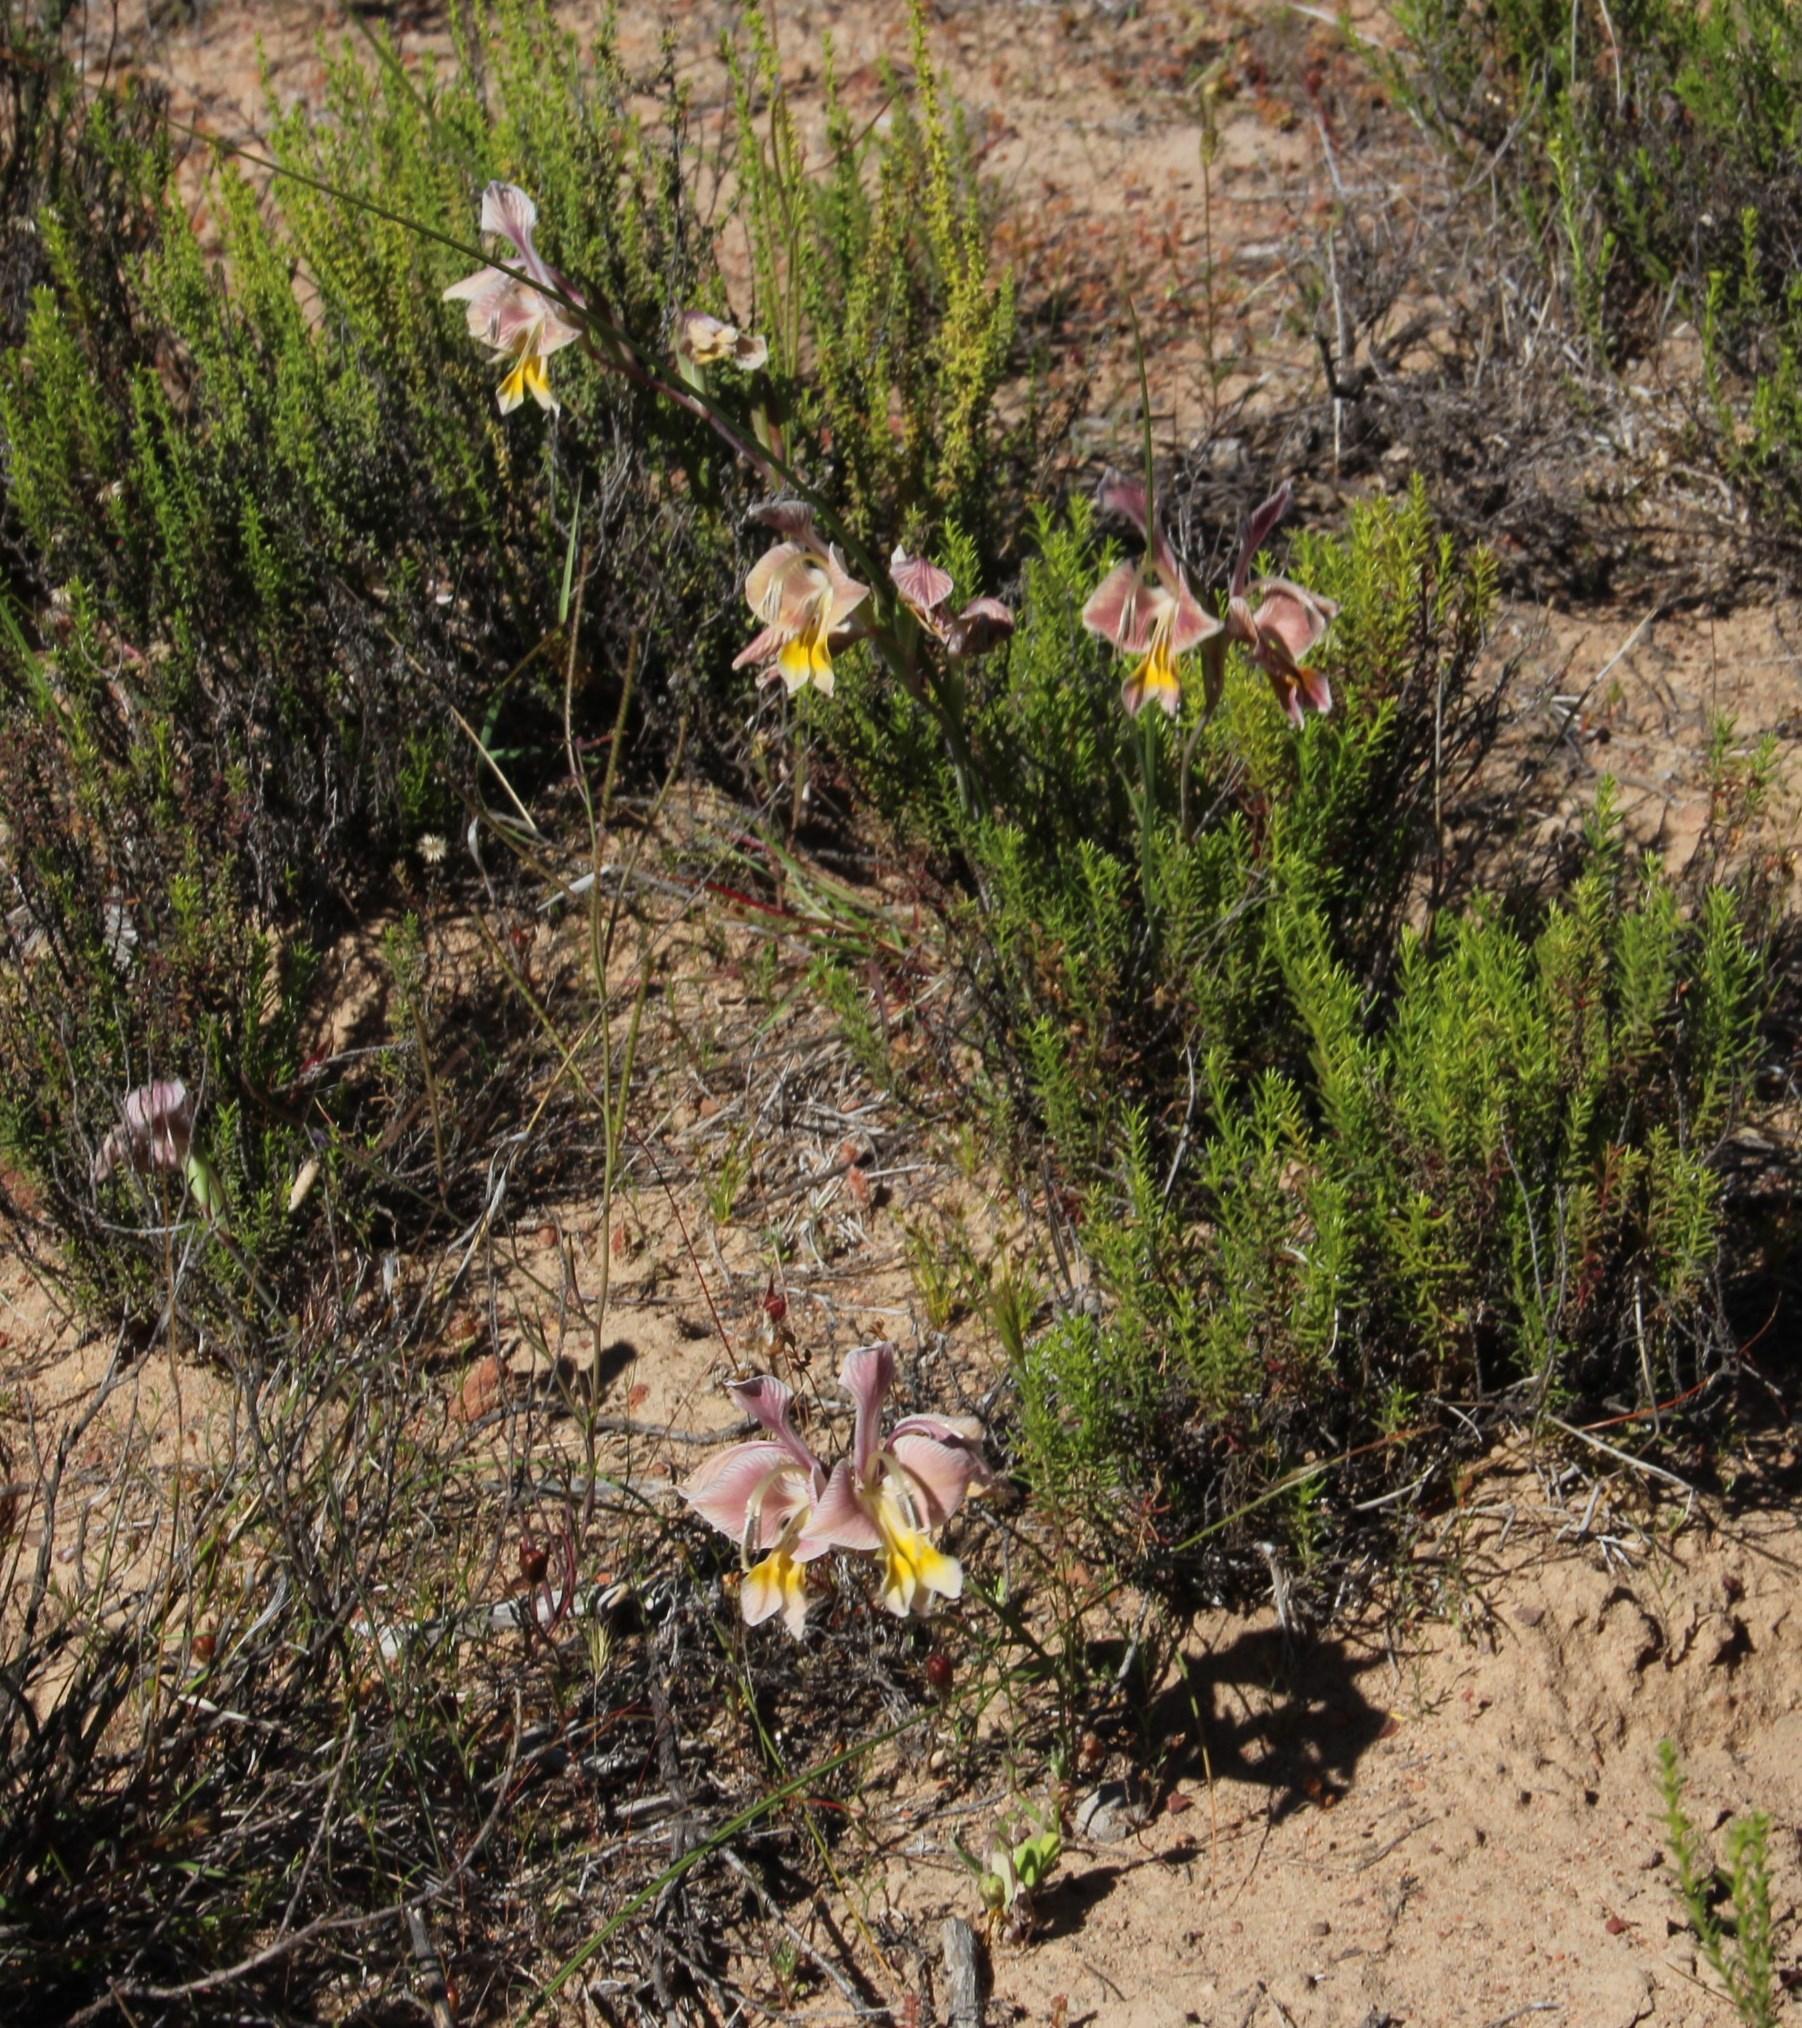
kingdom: Plantae
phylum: Tracheophyta
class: Liliopsida
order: Asparagales
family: Iridaceae
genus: Gladiolus
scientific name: Gladiolus virescens
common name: Yellow kalkoentjie
